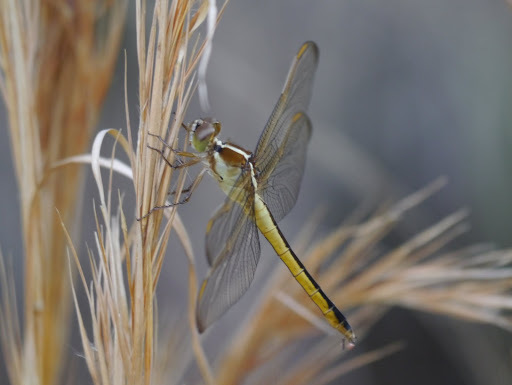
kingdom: Animalia
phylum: Arthropoda
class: Insecta
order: Odonata
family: Libellulidae
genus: Libellula
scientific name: Libellula needhami
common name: Needham's skimmer
